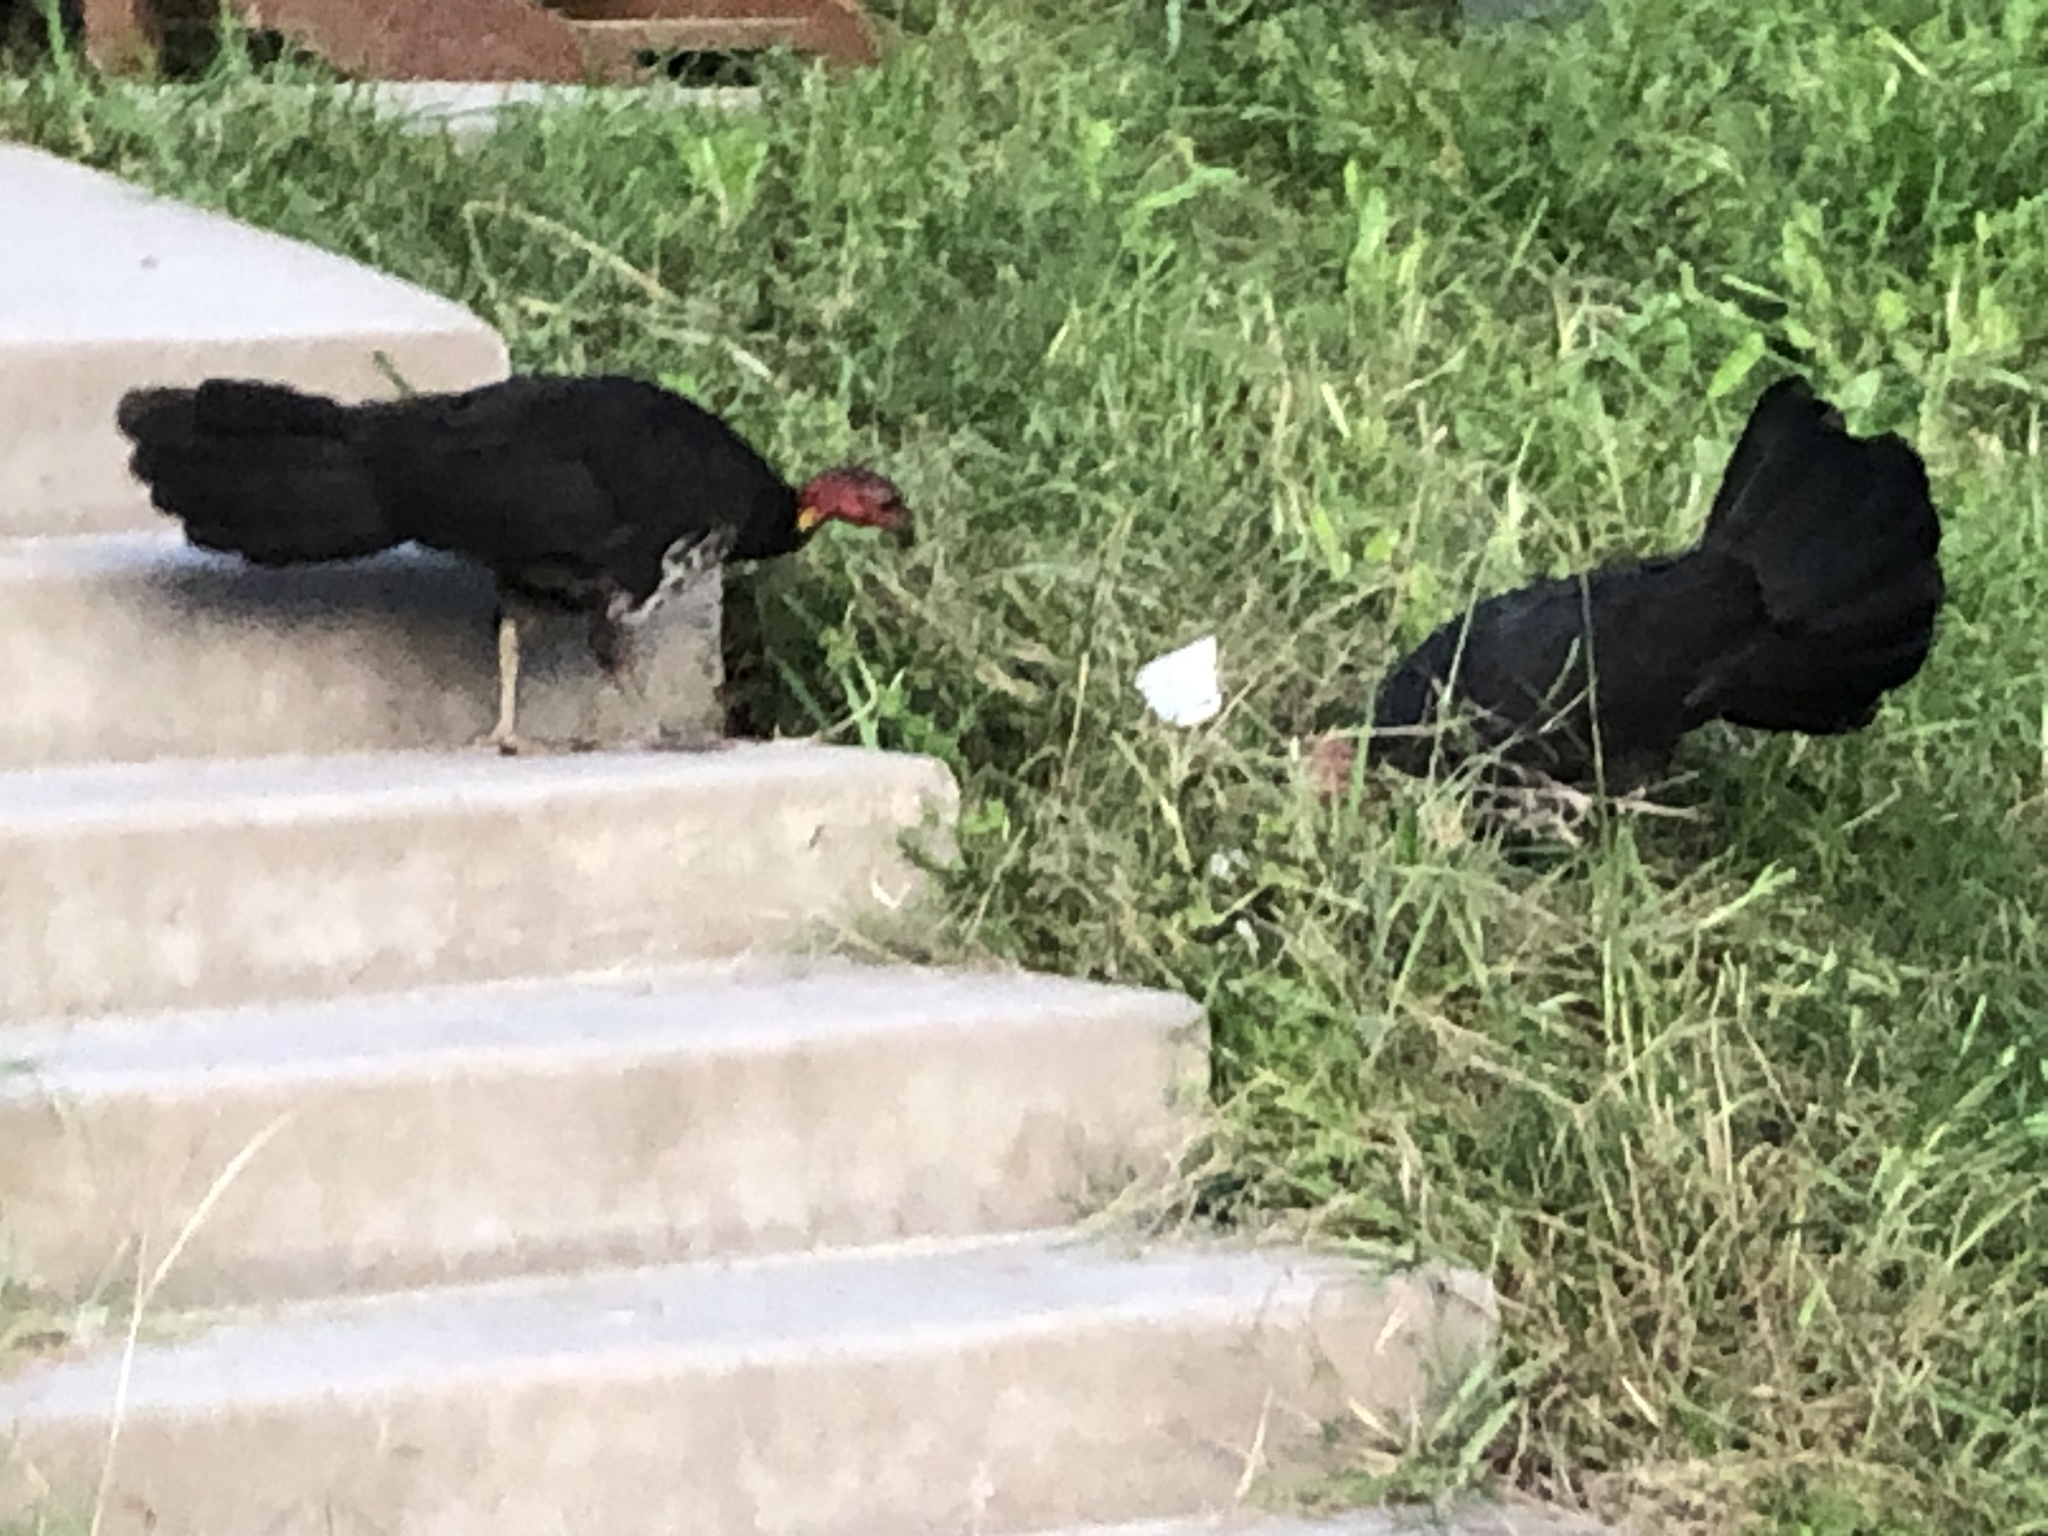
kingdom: Animalia
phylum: Chordata
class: Aves
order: Galliformes
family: Megapodiidae
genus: Alectura
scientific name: Alectura lathami
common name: Australian brushturkey
